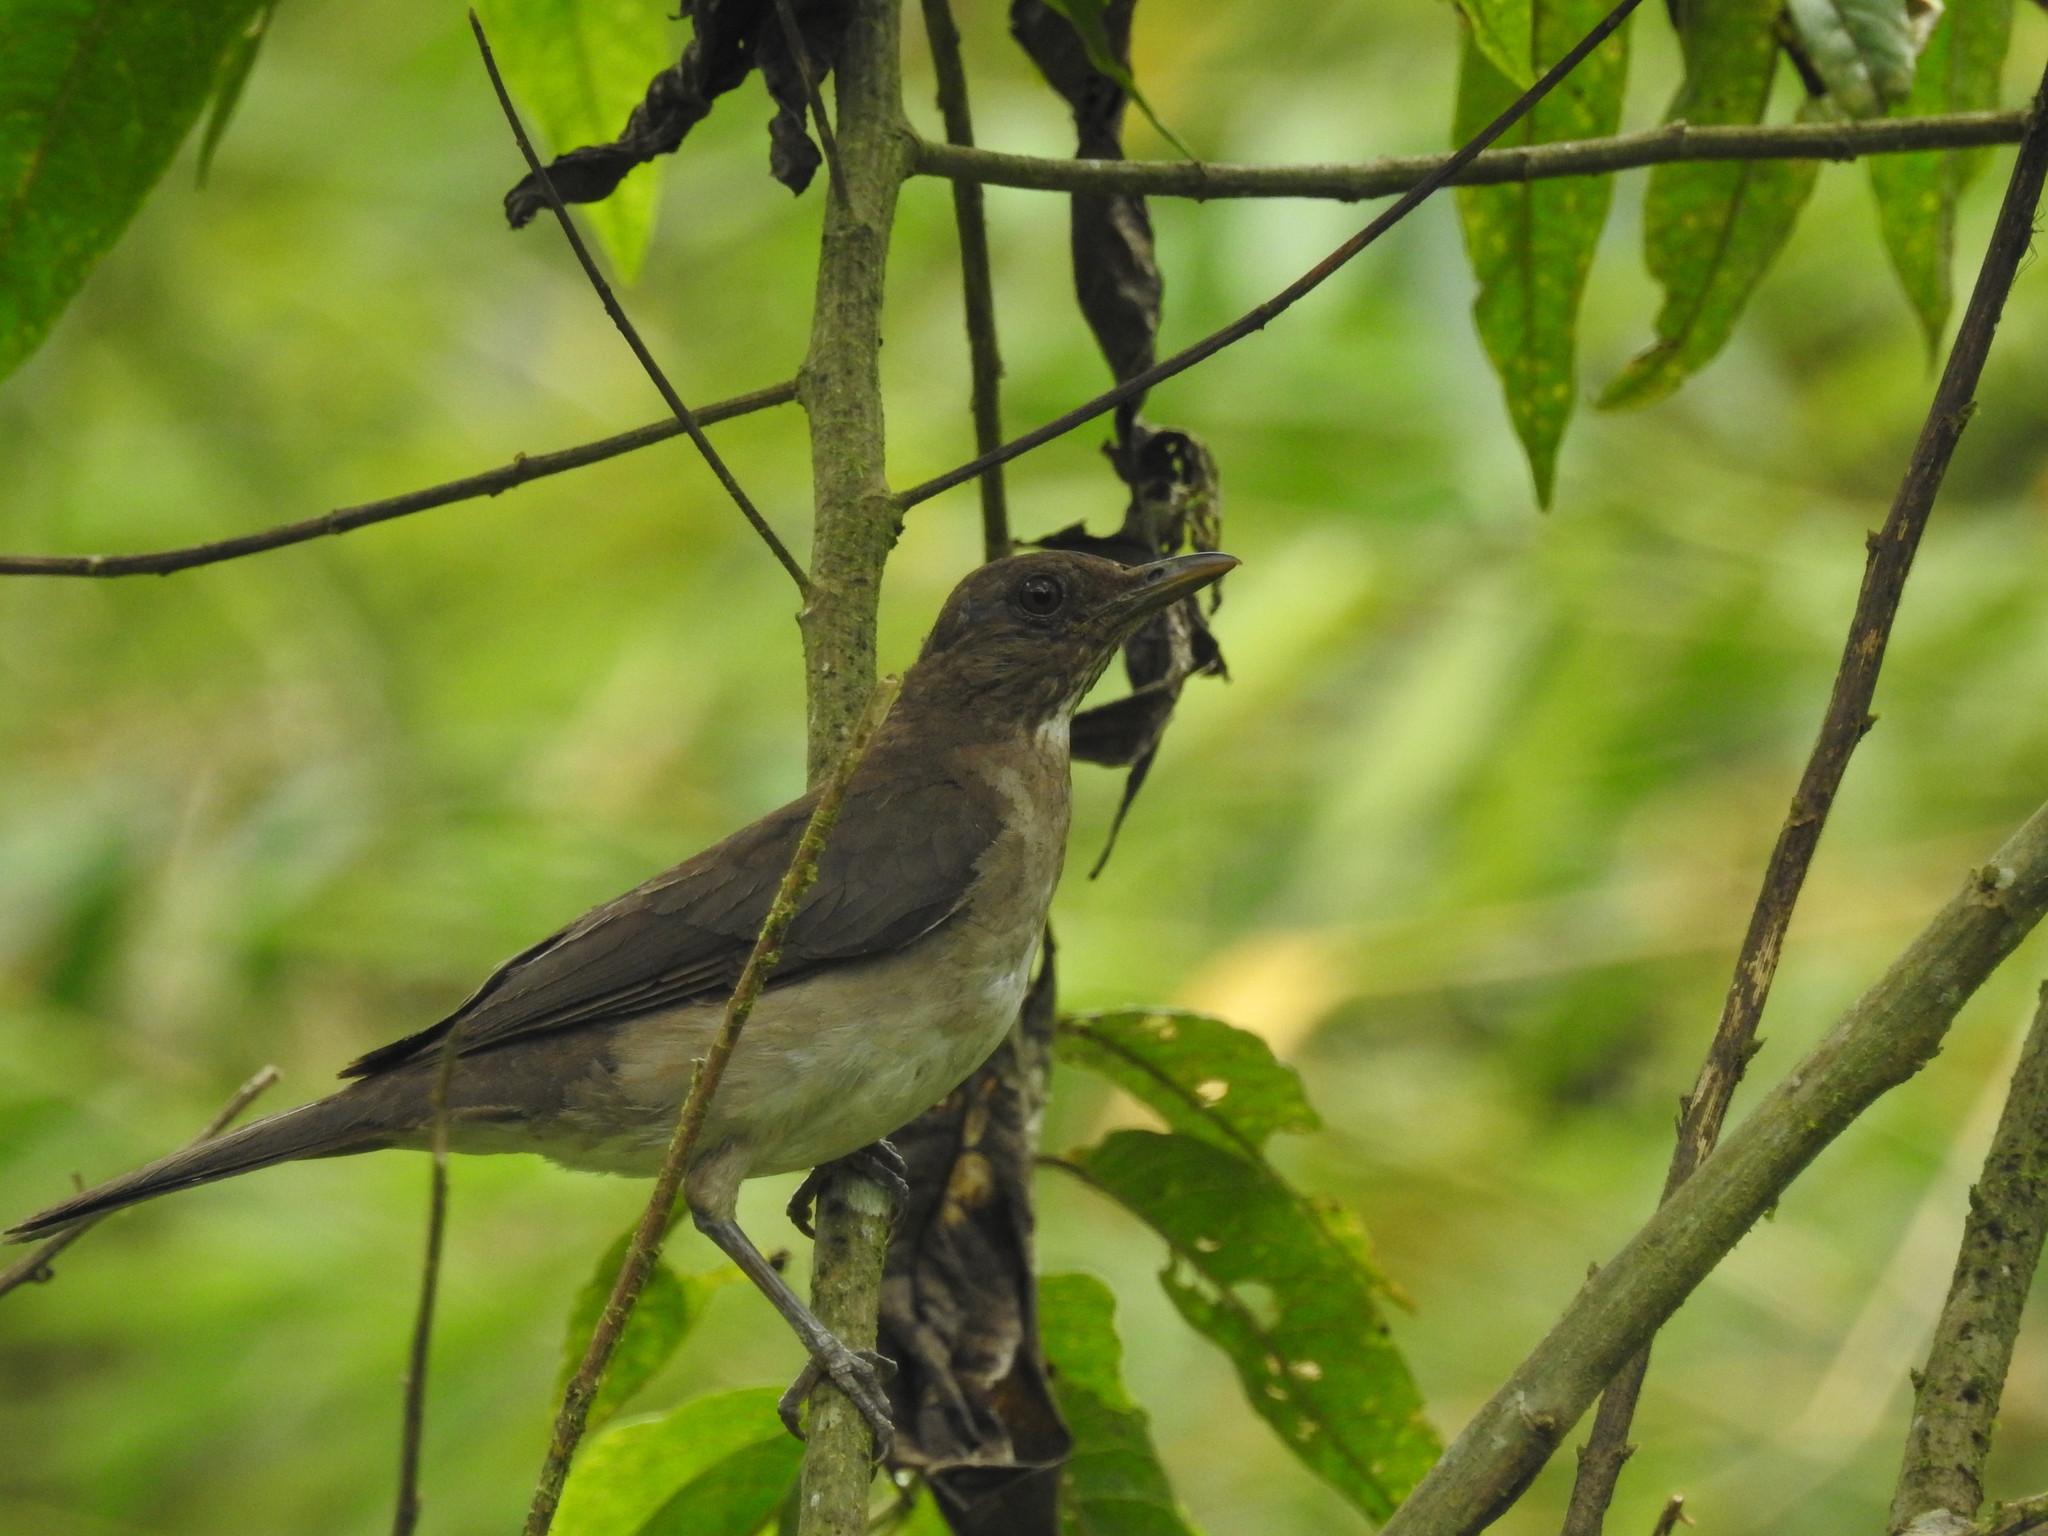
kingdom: Animalia
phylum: Chordata
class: Aves
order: Passeriformes
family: Turdidae
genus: Turdus
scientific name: Turdus ignobilis
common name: Black-billed thrush
